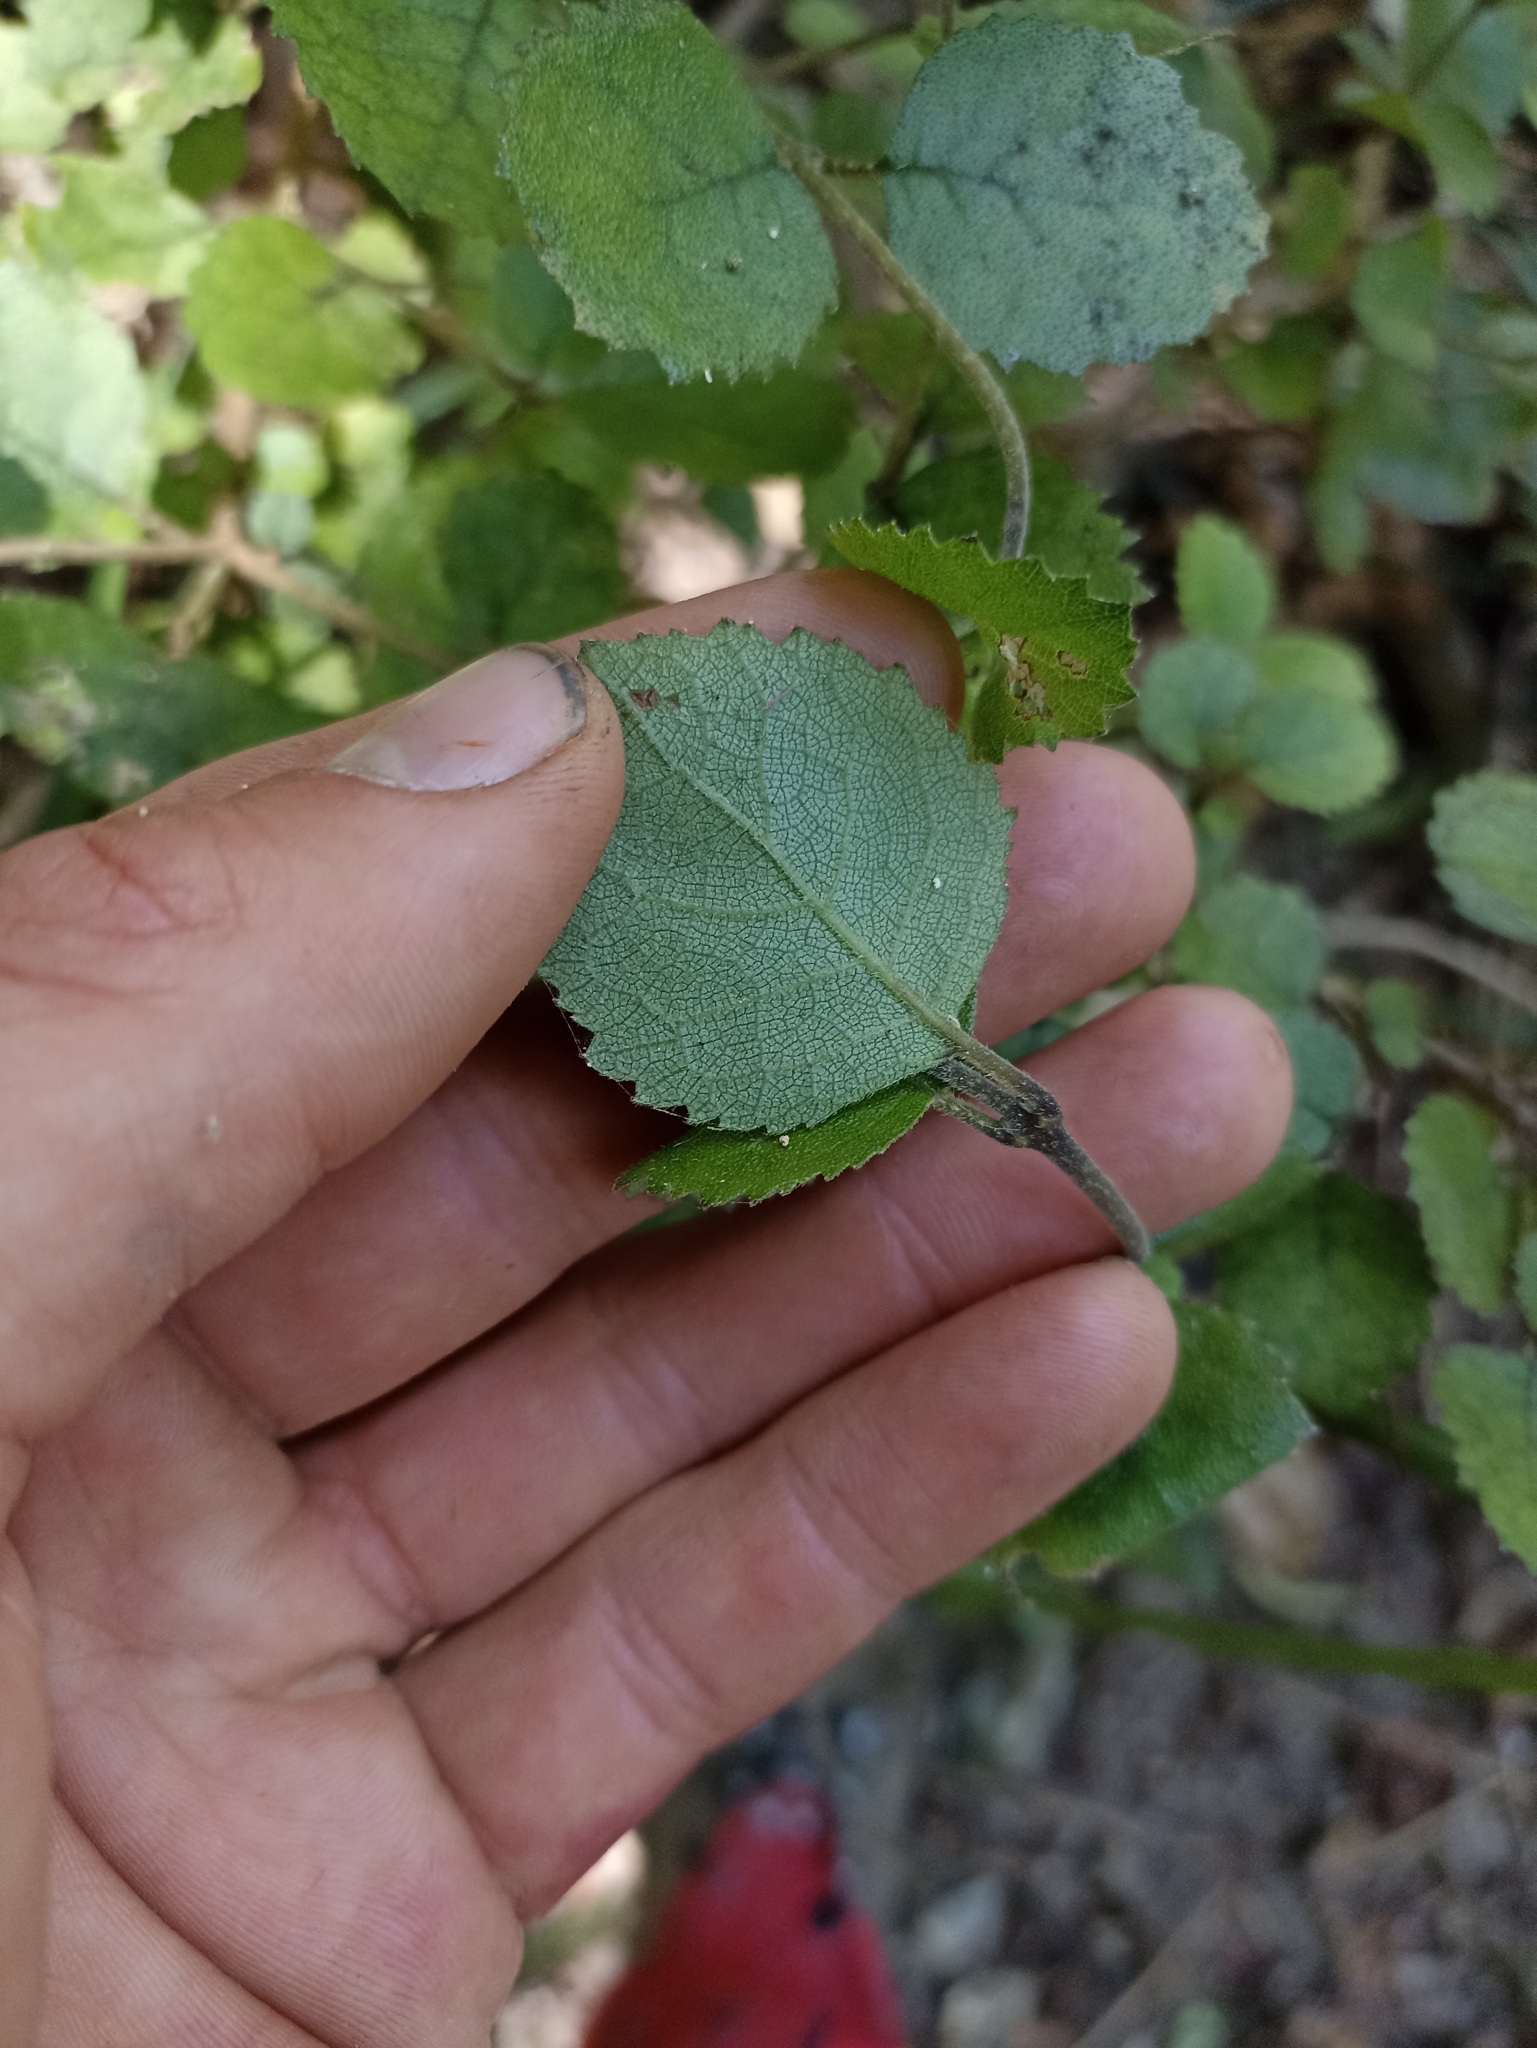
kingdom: Plantae
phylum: Tracheophyta
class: Magnoliopsida
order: Lamiales
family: Gesneriaceae
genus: Rhabdothamnus
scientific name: Rhabdothamnus solandri
